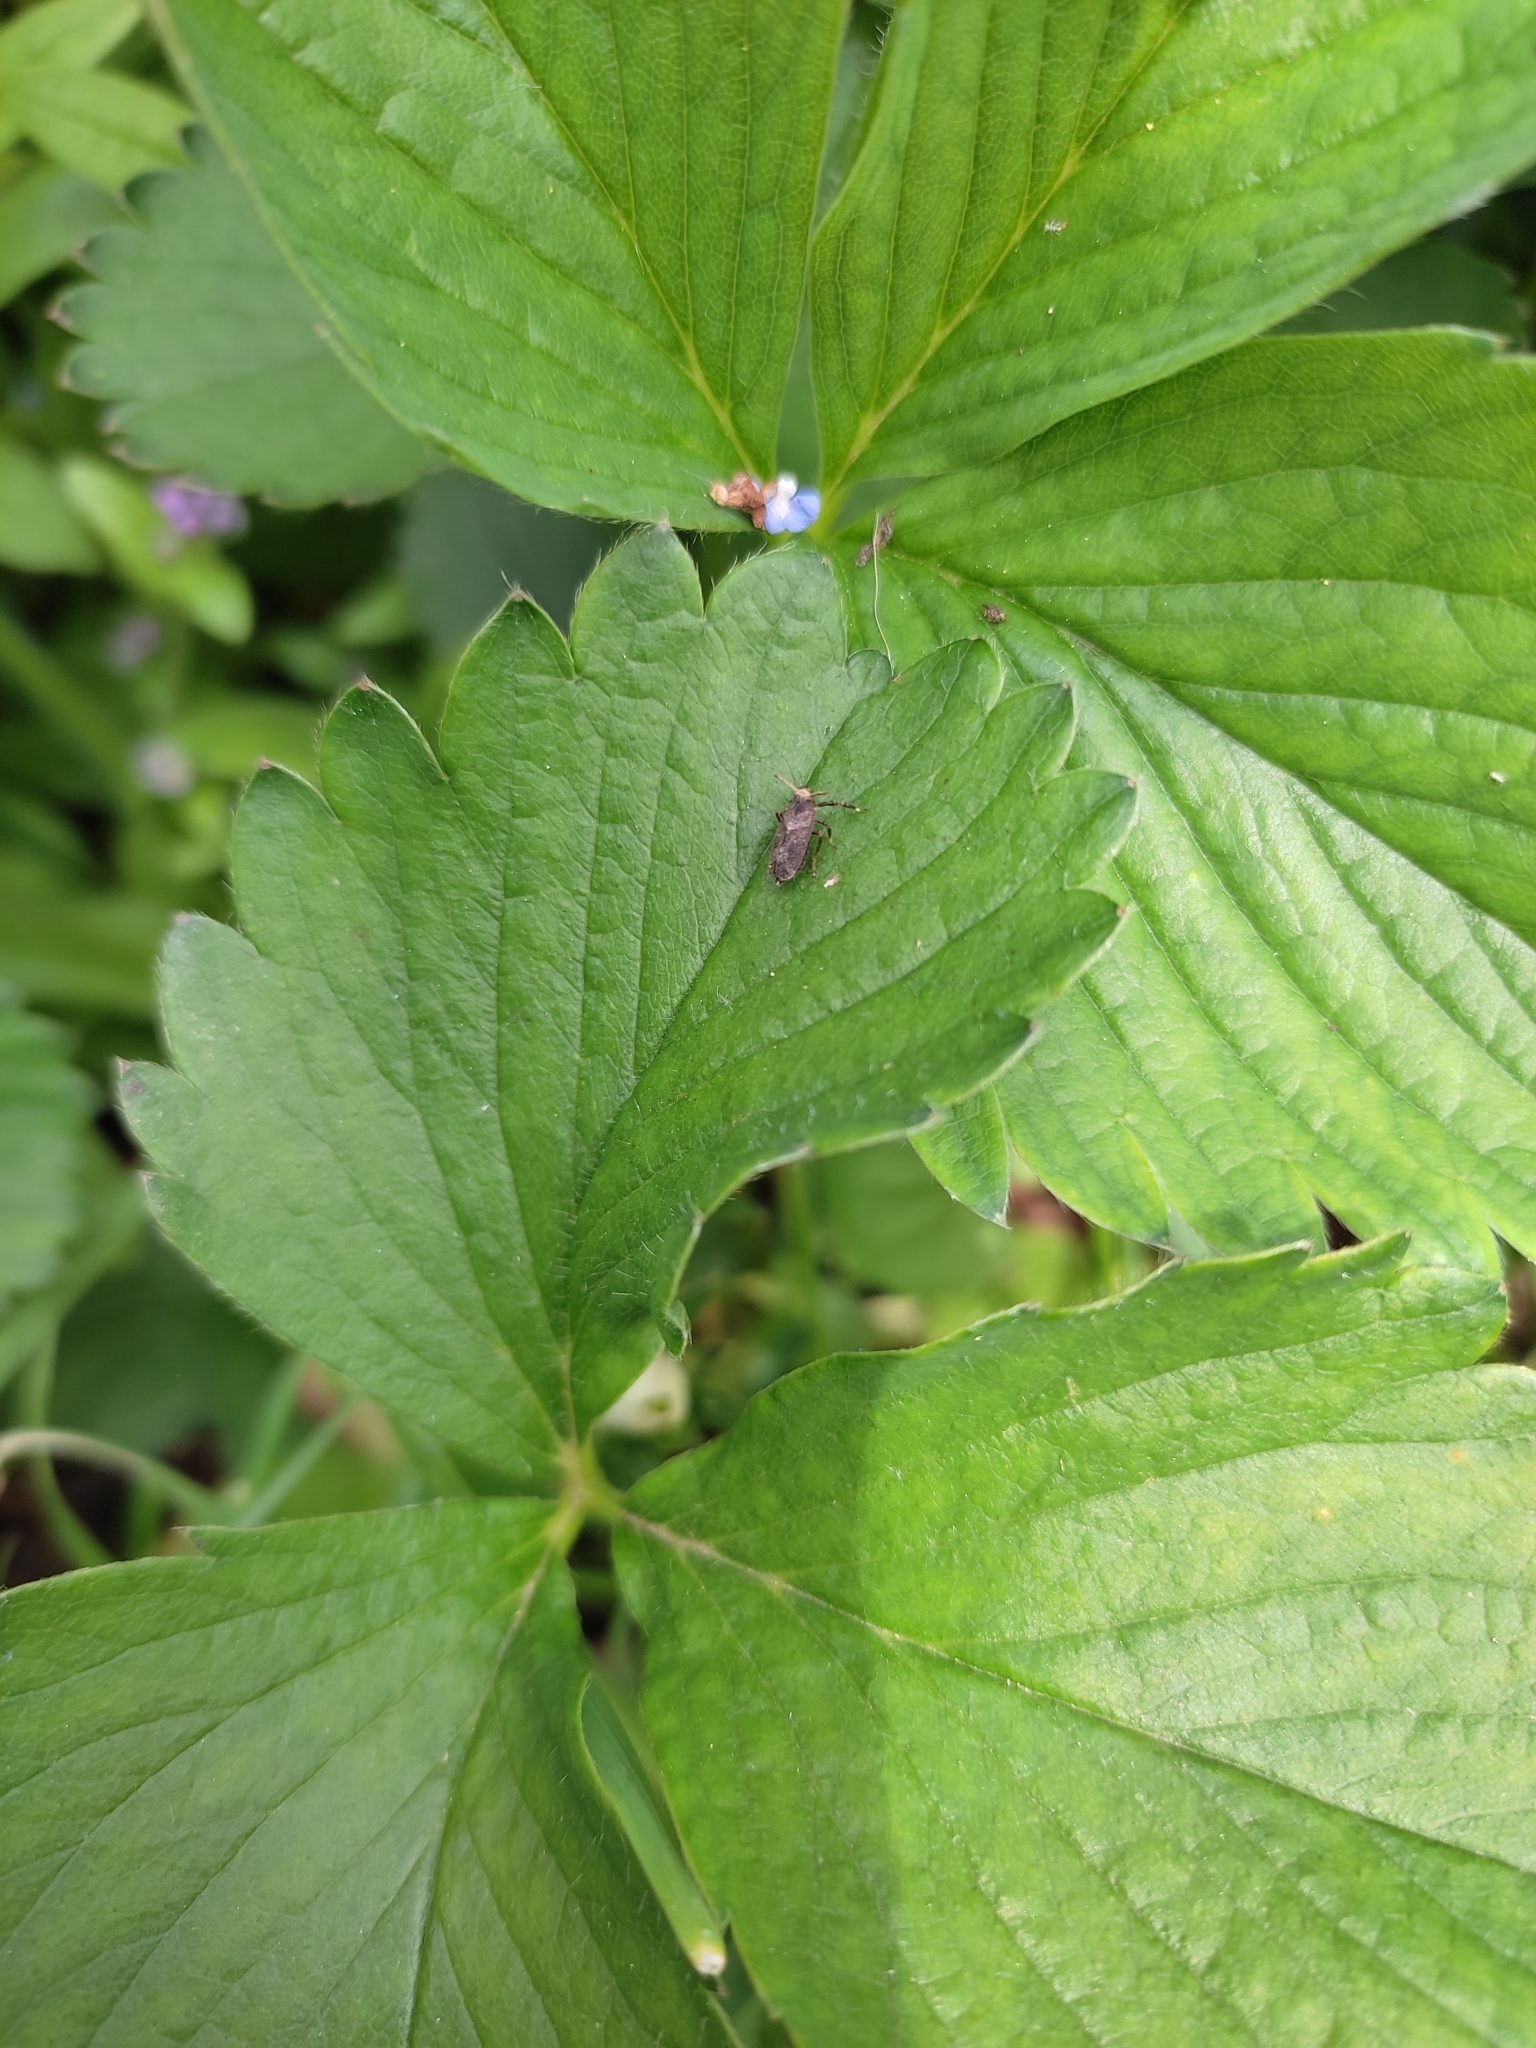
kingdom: Animalia
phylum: Arthropoda
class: Insecta
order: Hemiptera
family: Delphacidae
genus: Asiraca
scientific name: Asiraca clavicornis
